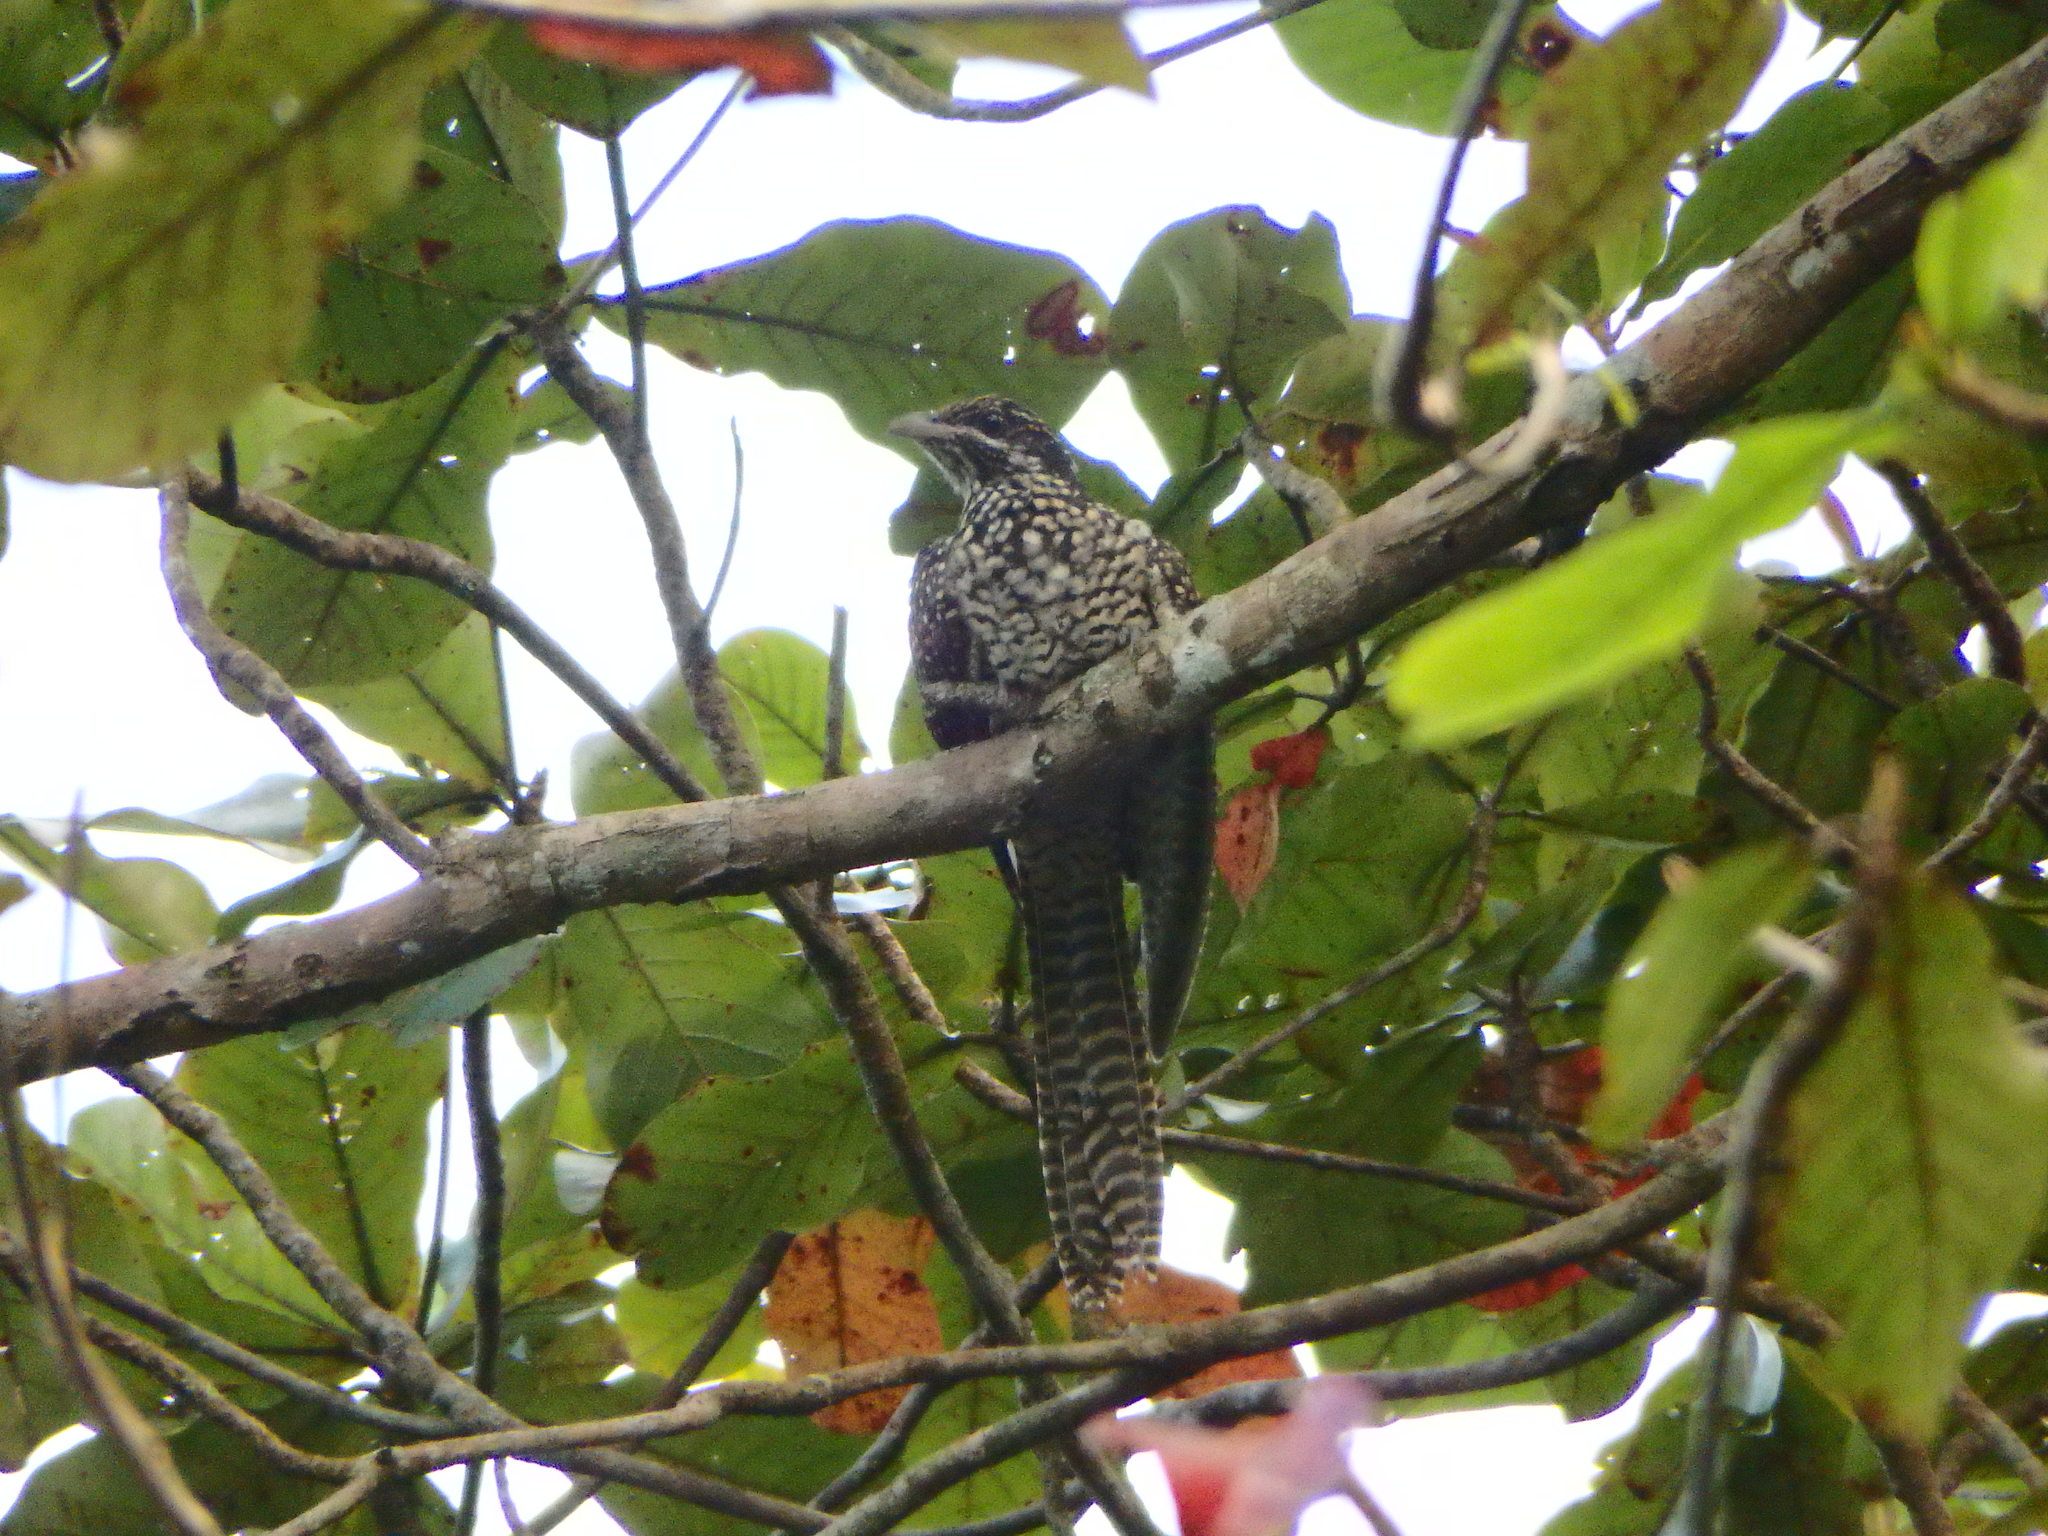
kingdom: Animalia
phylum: Chordata
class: Aves
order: Cuculiformes
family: Cuculidae
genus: Eudynamys
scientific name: Eudynamys scolopaceus
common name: Asian koel
